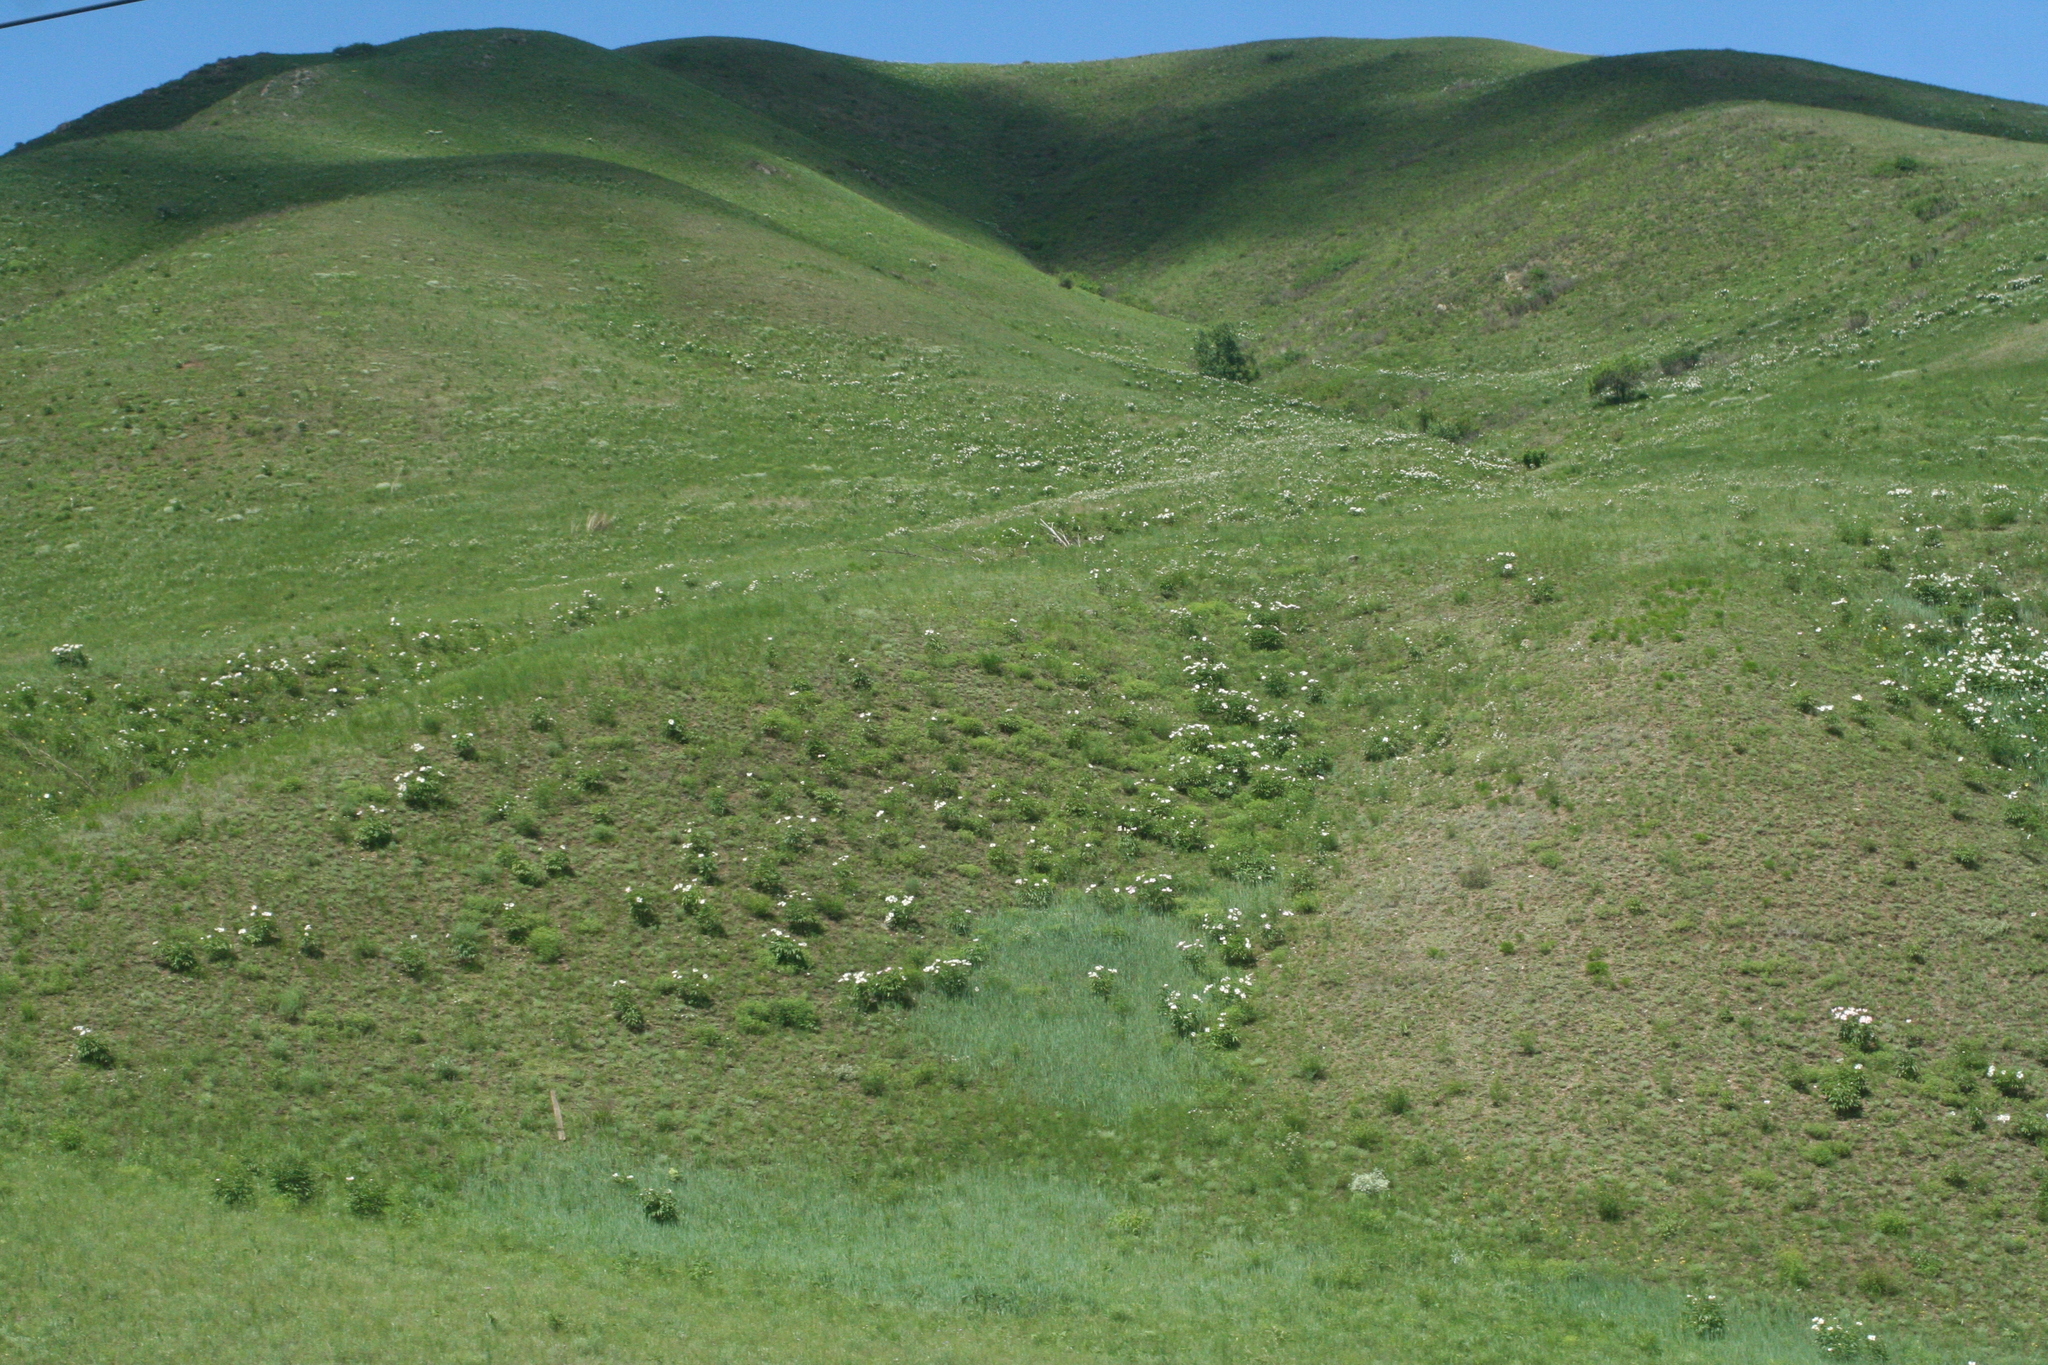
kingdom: Plantae
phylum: Tracheophyta
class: Magnoliopsida
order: Saxifragales
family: Paeoniaceae
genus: Paeonia
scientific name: Paeonia lactiflora
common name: Chinese peony
